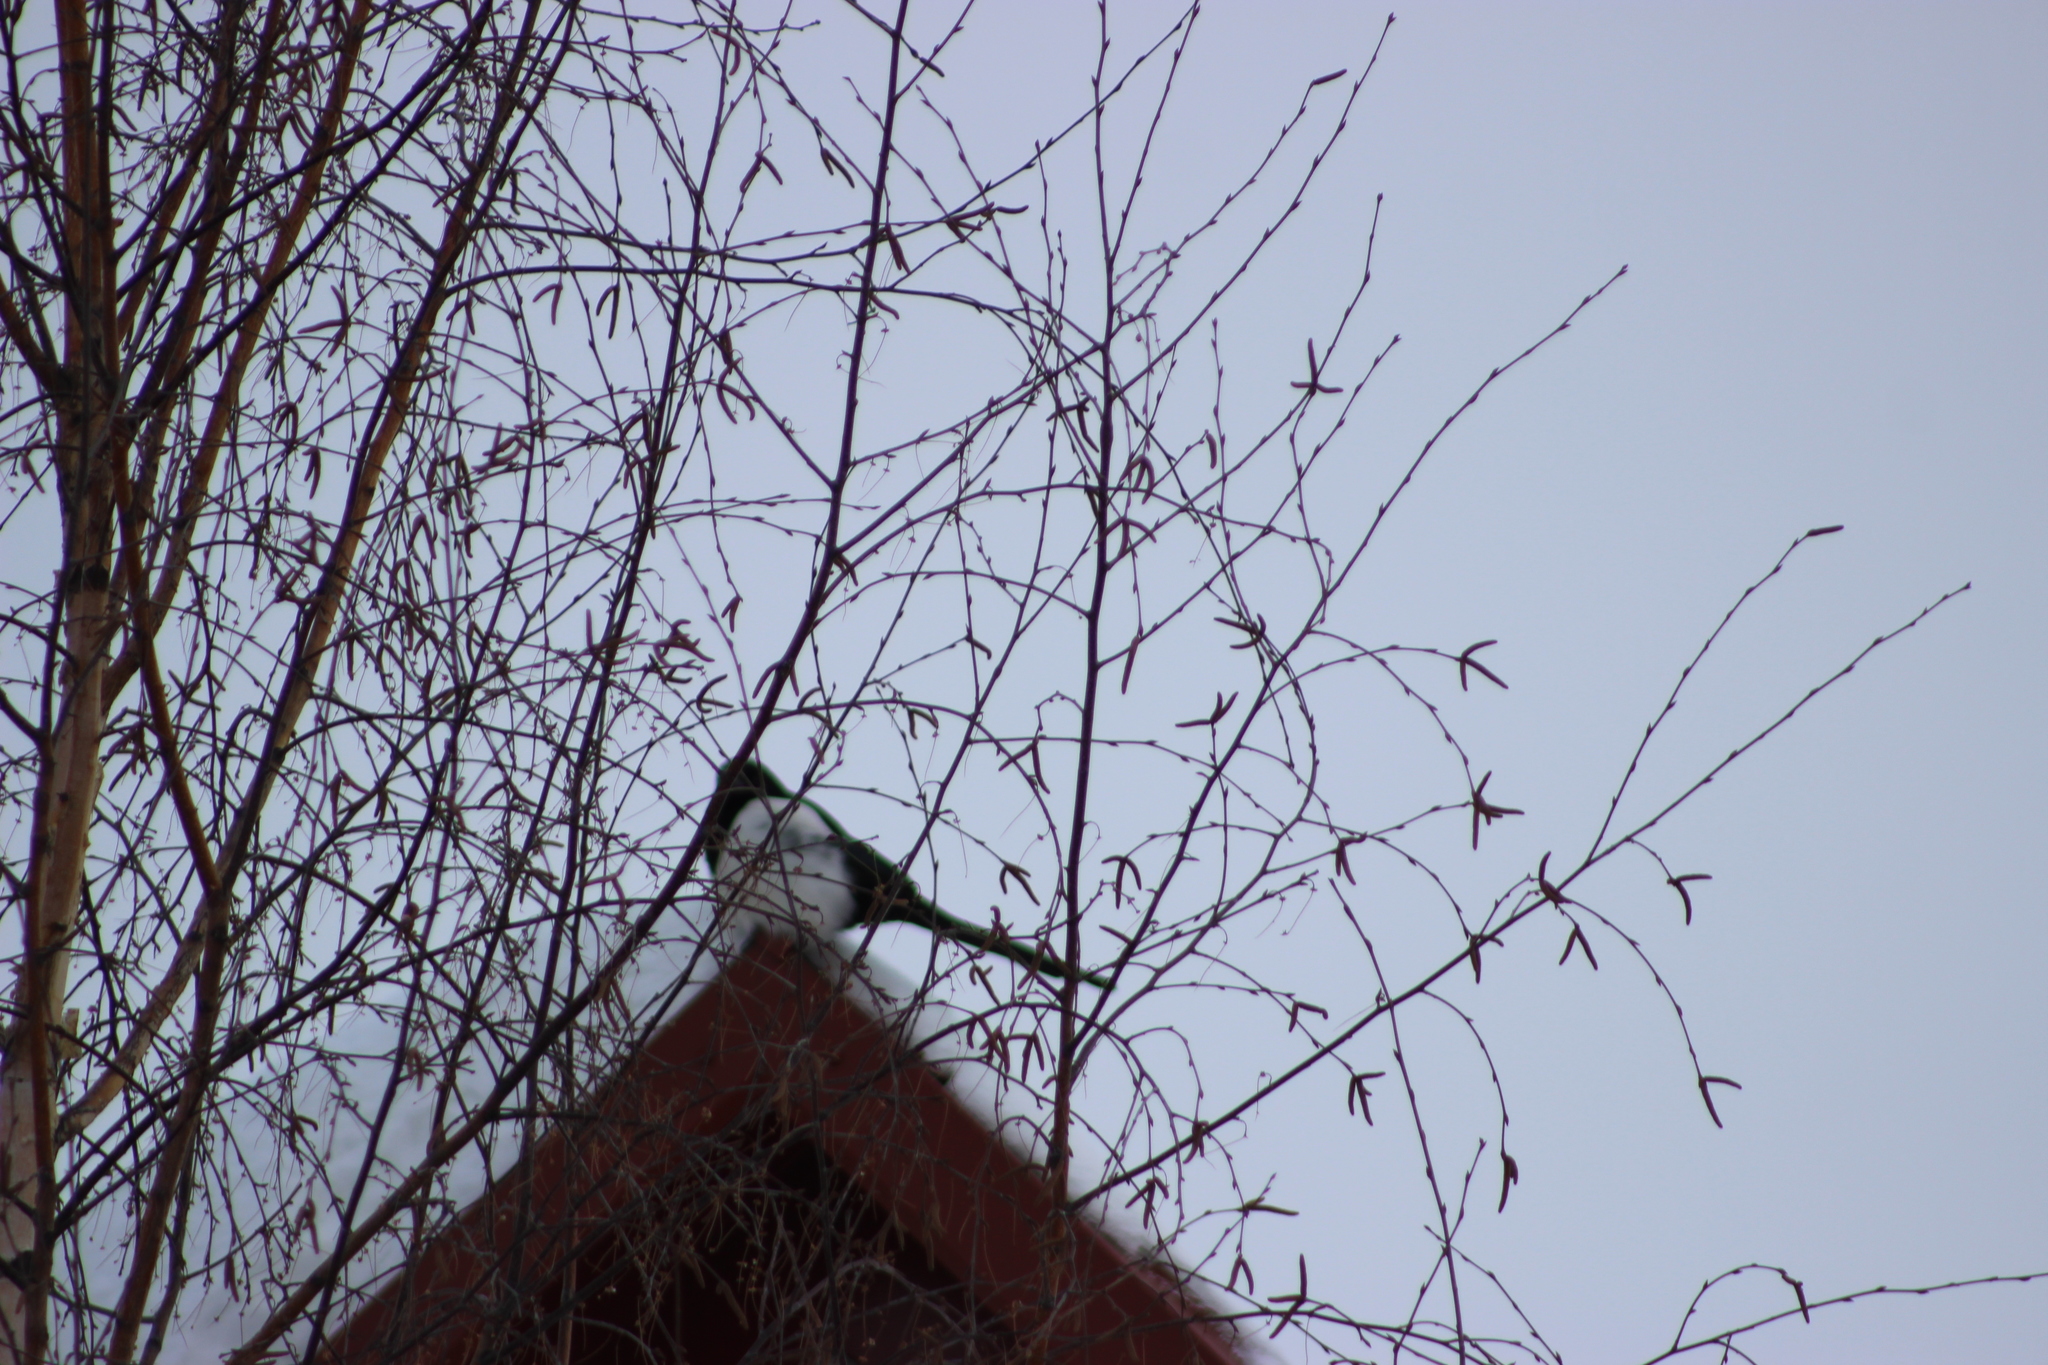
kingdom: Animalia
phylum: Chordata
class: Aves
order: Passeriformes
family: Corvidae
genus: Pica
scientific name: Pica pica
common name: Eurasian magpie
